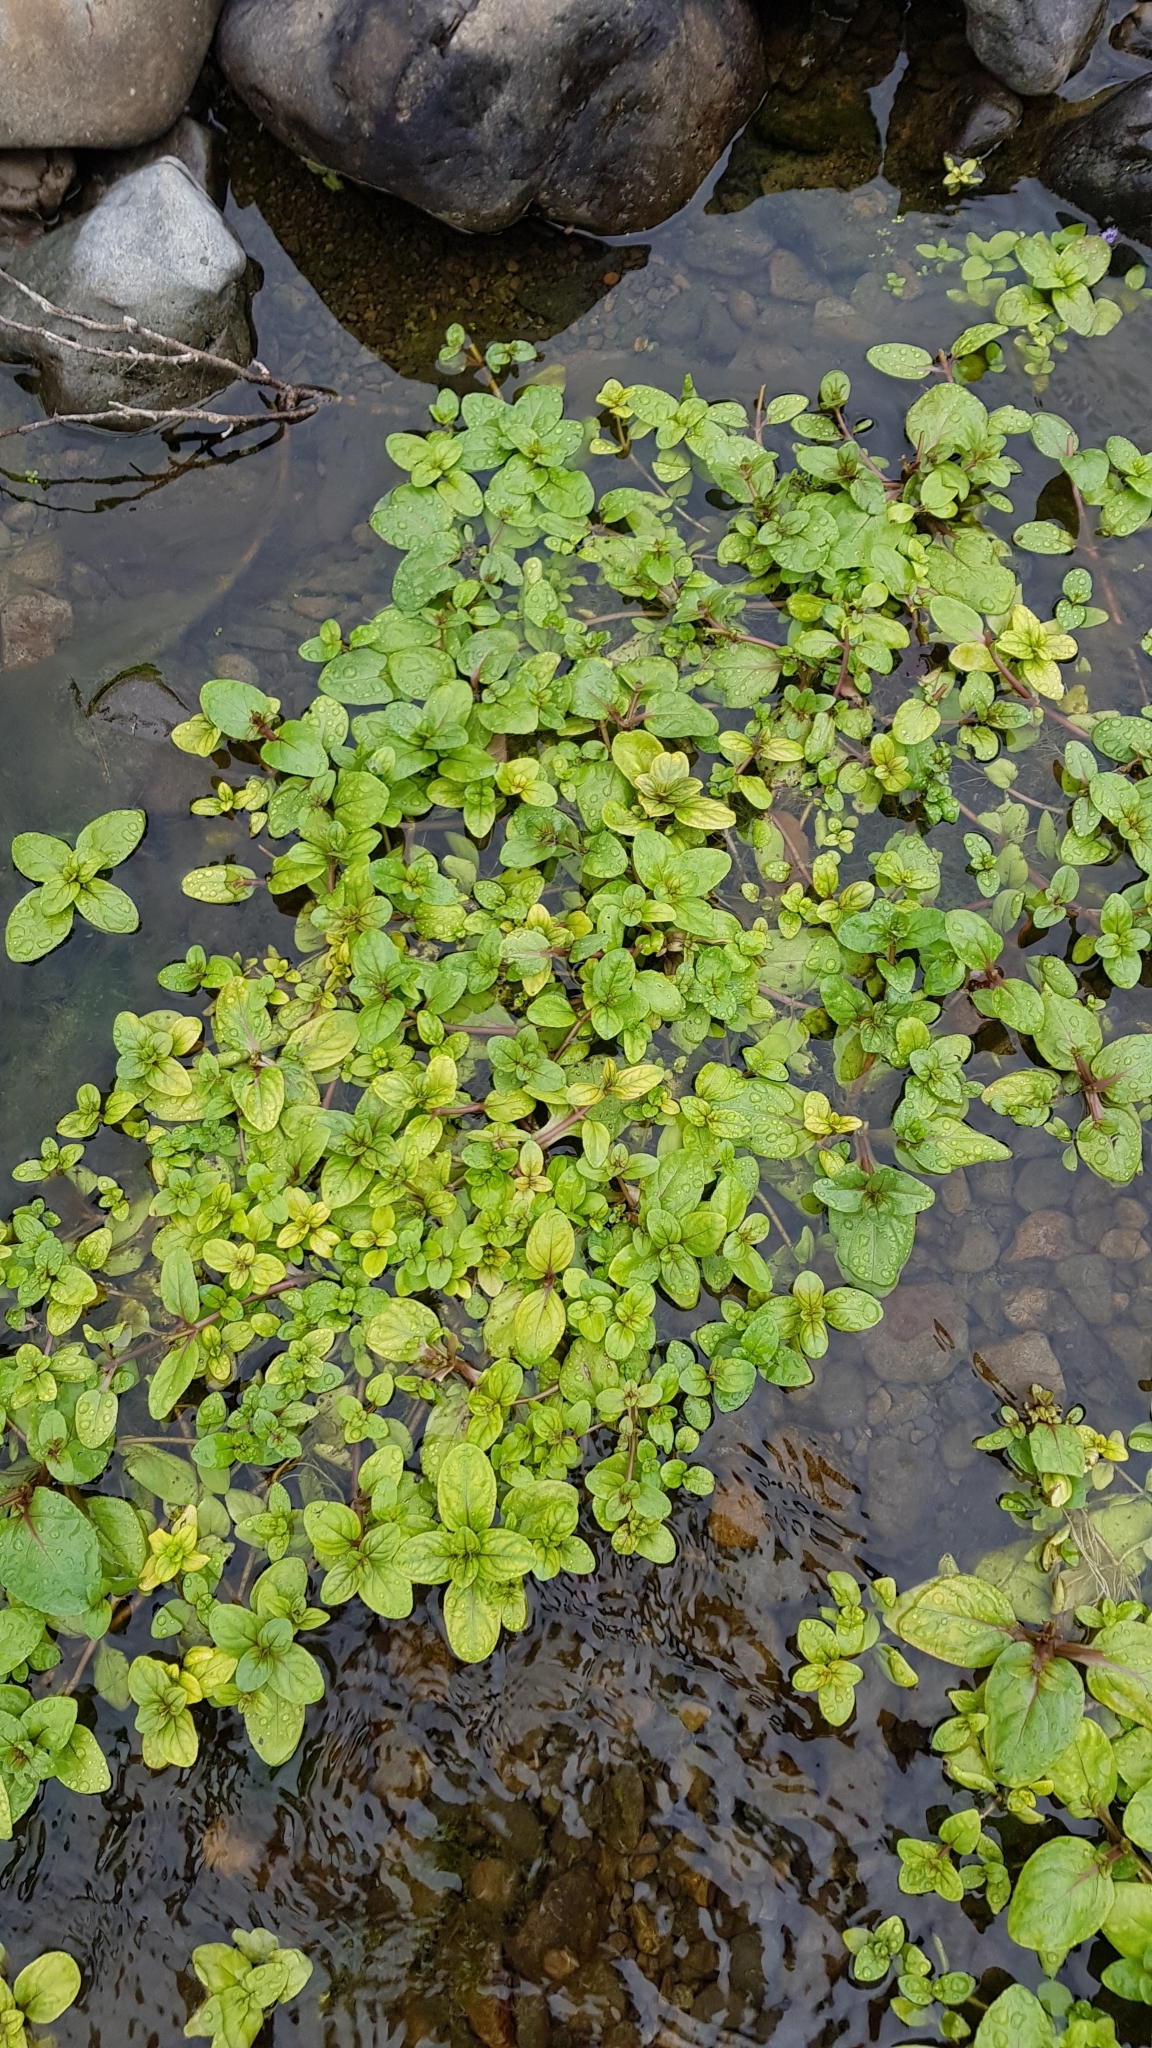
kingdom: Plantae
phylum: Tracheophyta
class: Magnoliopsida
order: Lamiales
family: Plantaginaceae
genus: Veronica
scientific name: Veronica anagallis-aquatica
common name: Water speedwell
